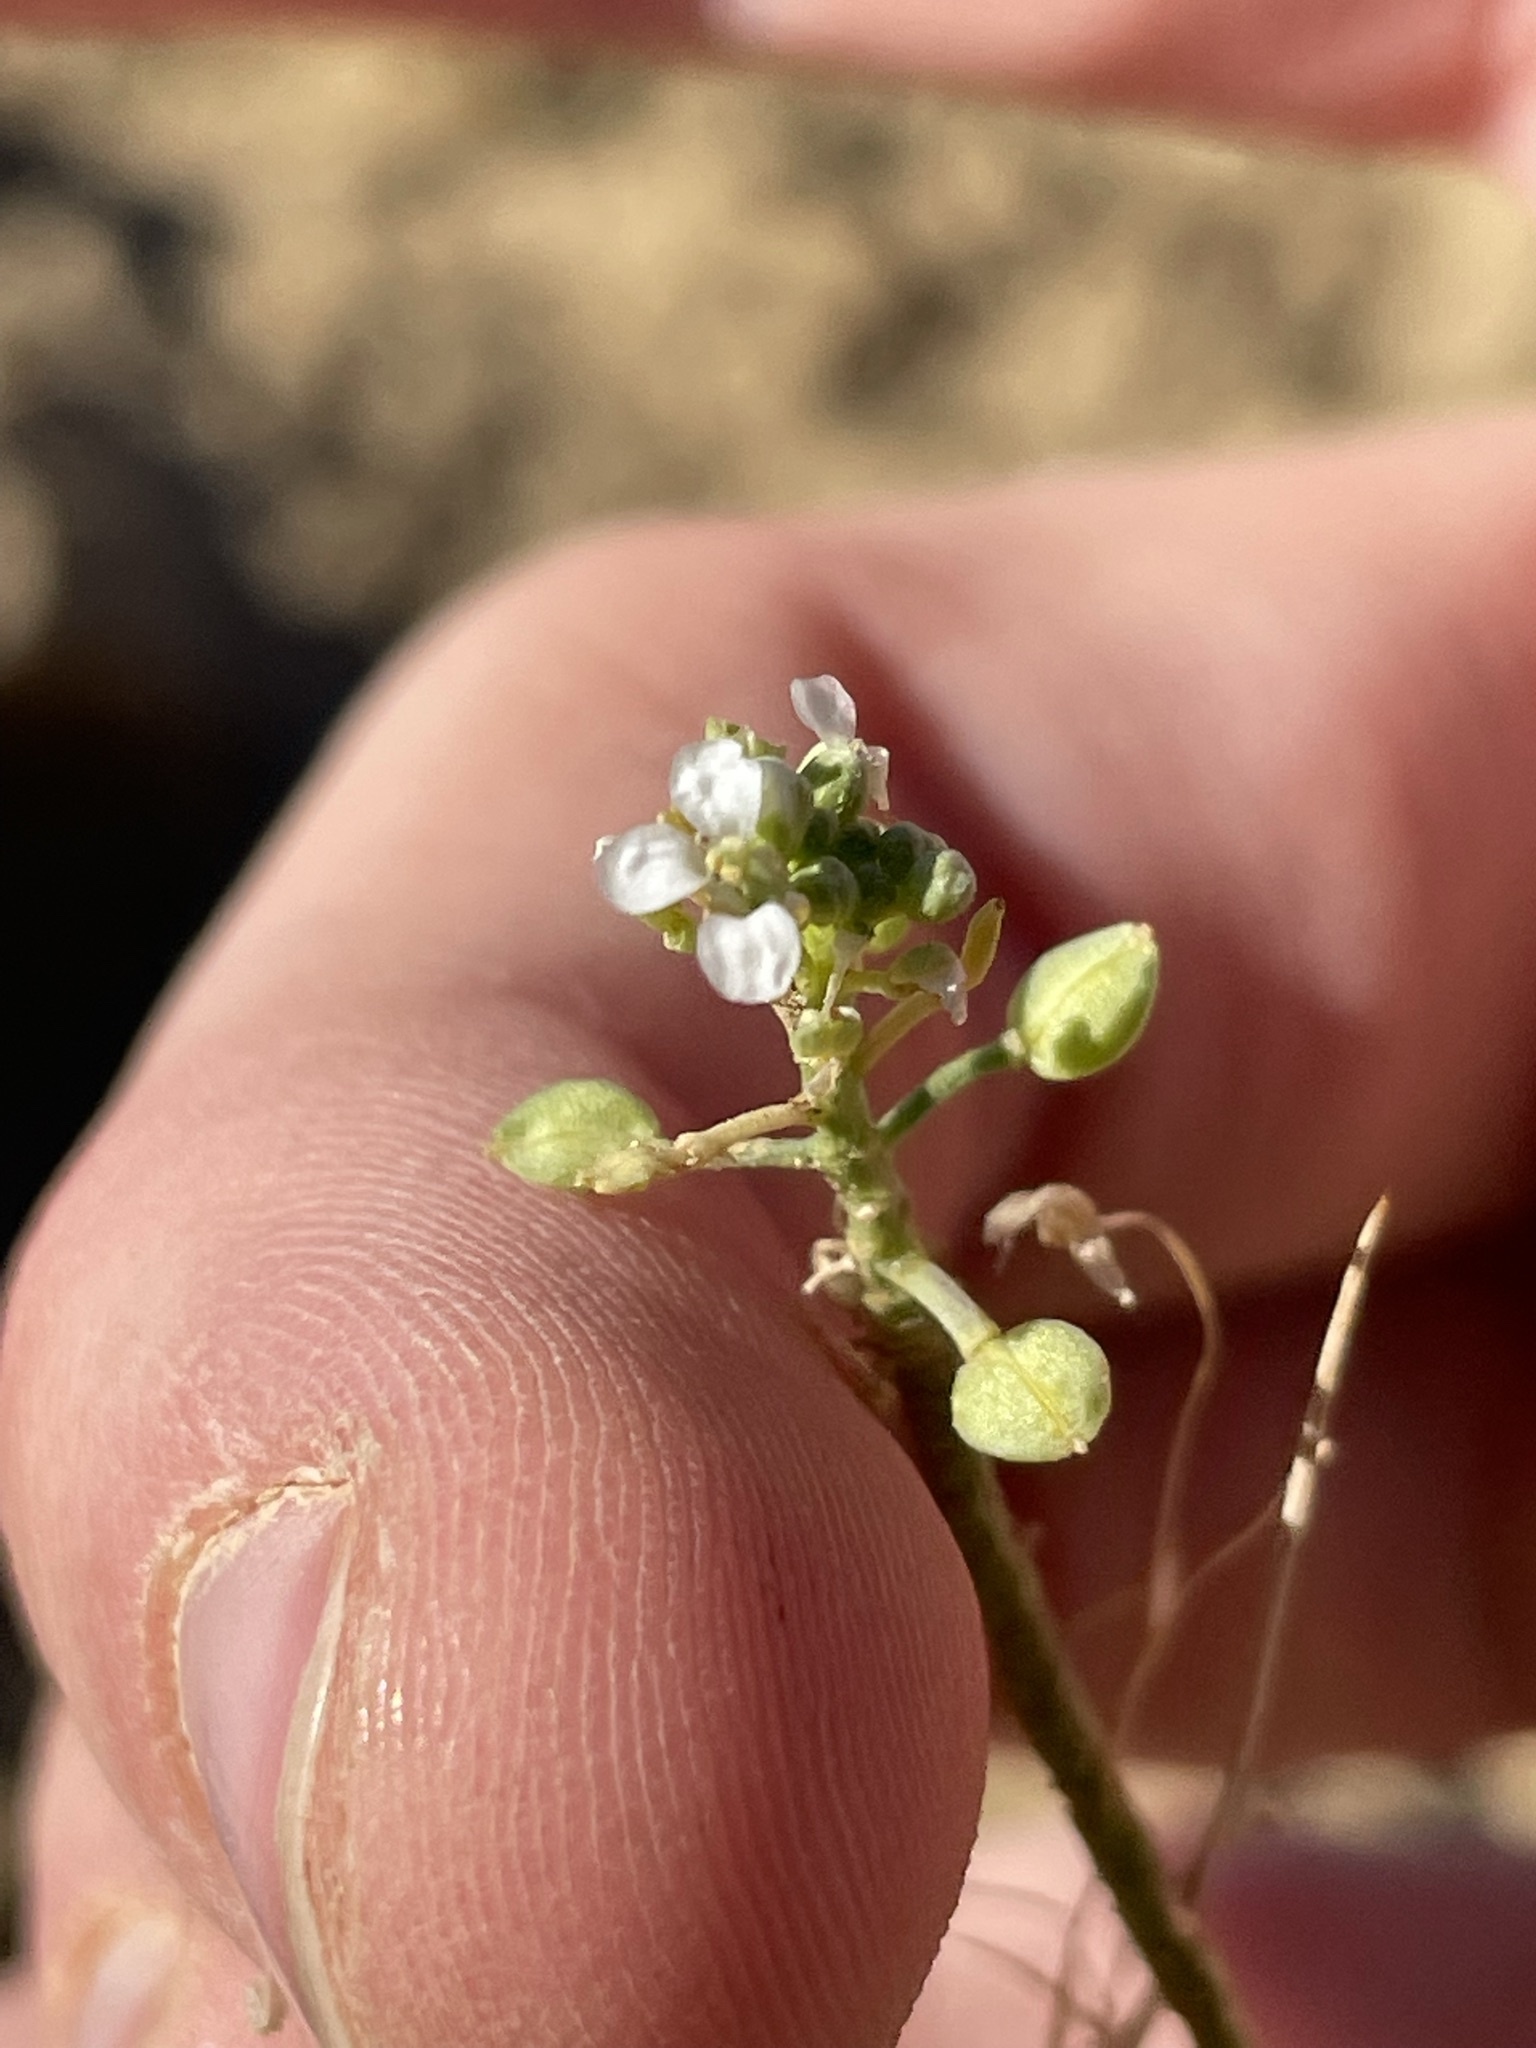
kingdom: Plantae
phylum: Tracheophyta
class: Magnoliopsida
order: Brassicales
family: Brassicaceae
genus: Lepidium
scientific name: Lepidium montanum
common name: Mountain pepperplant
